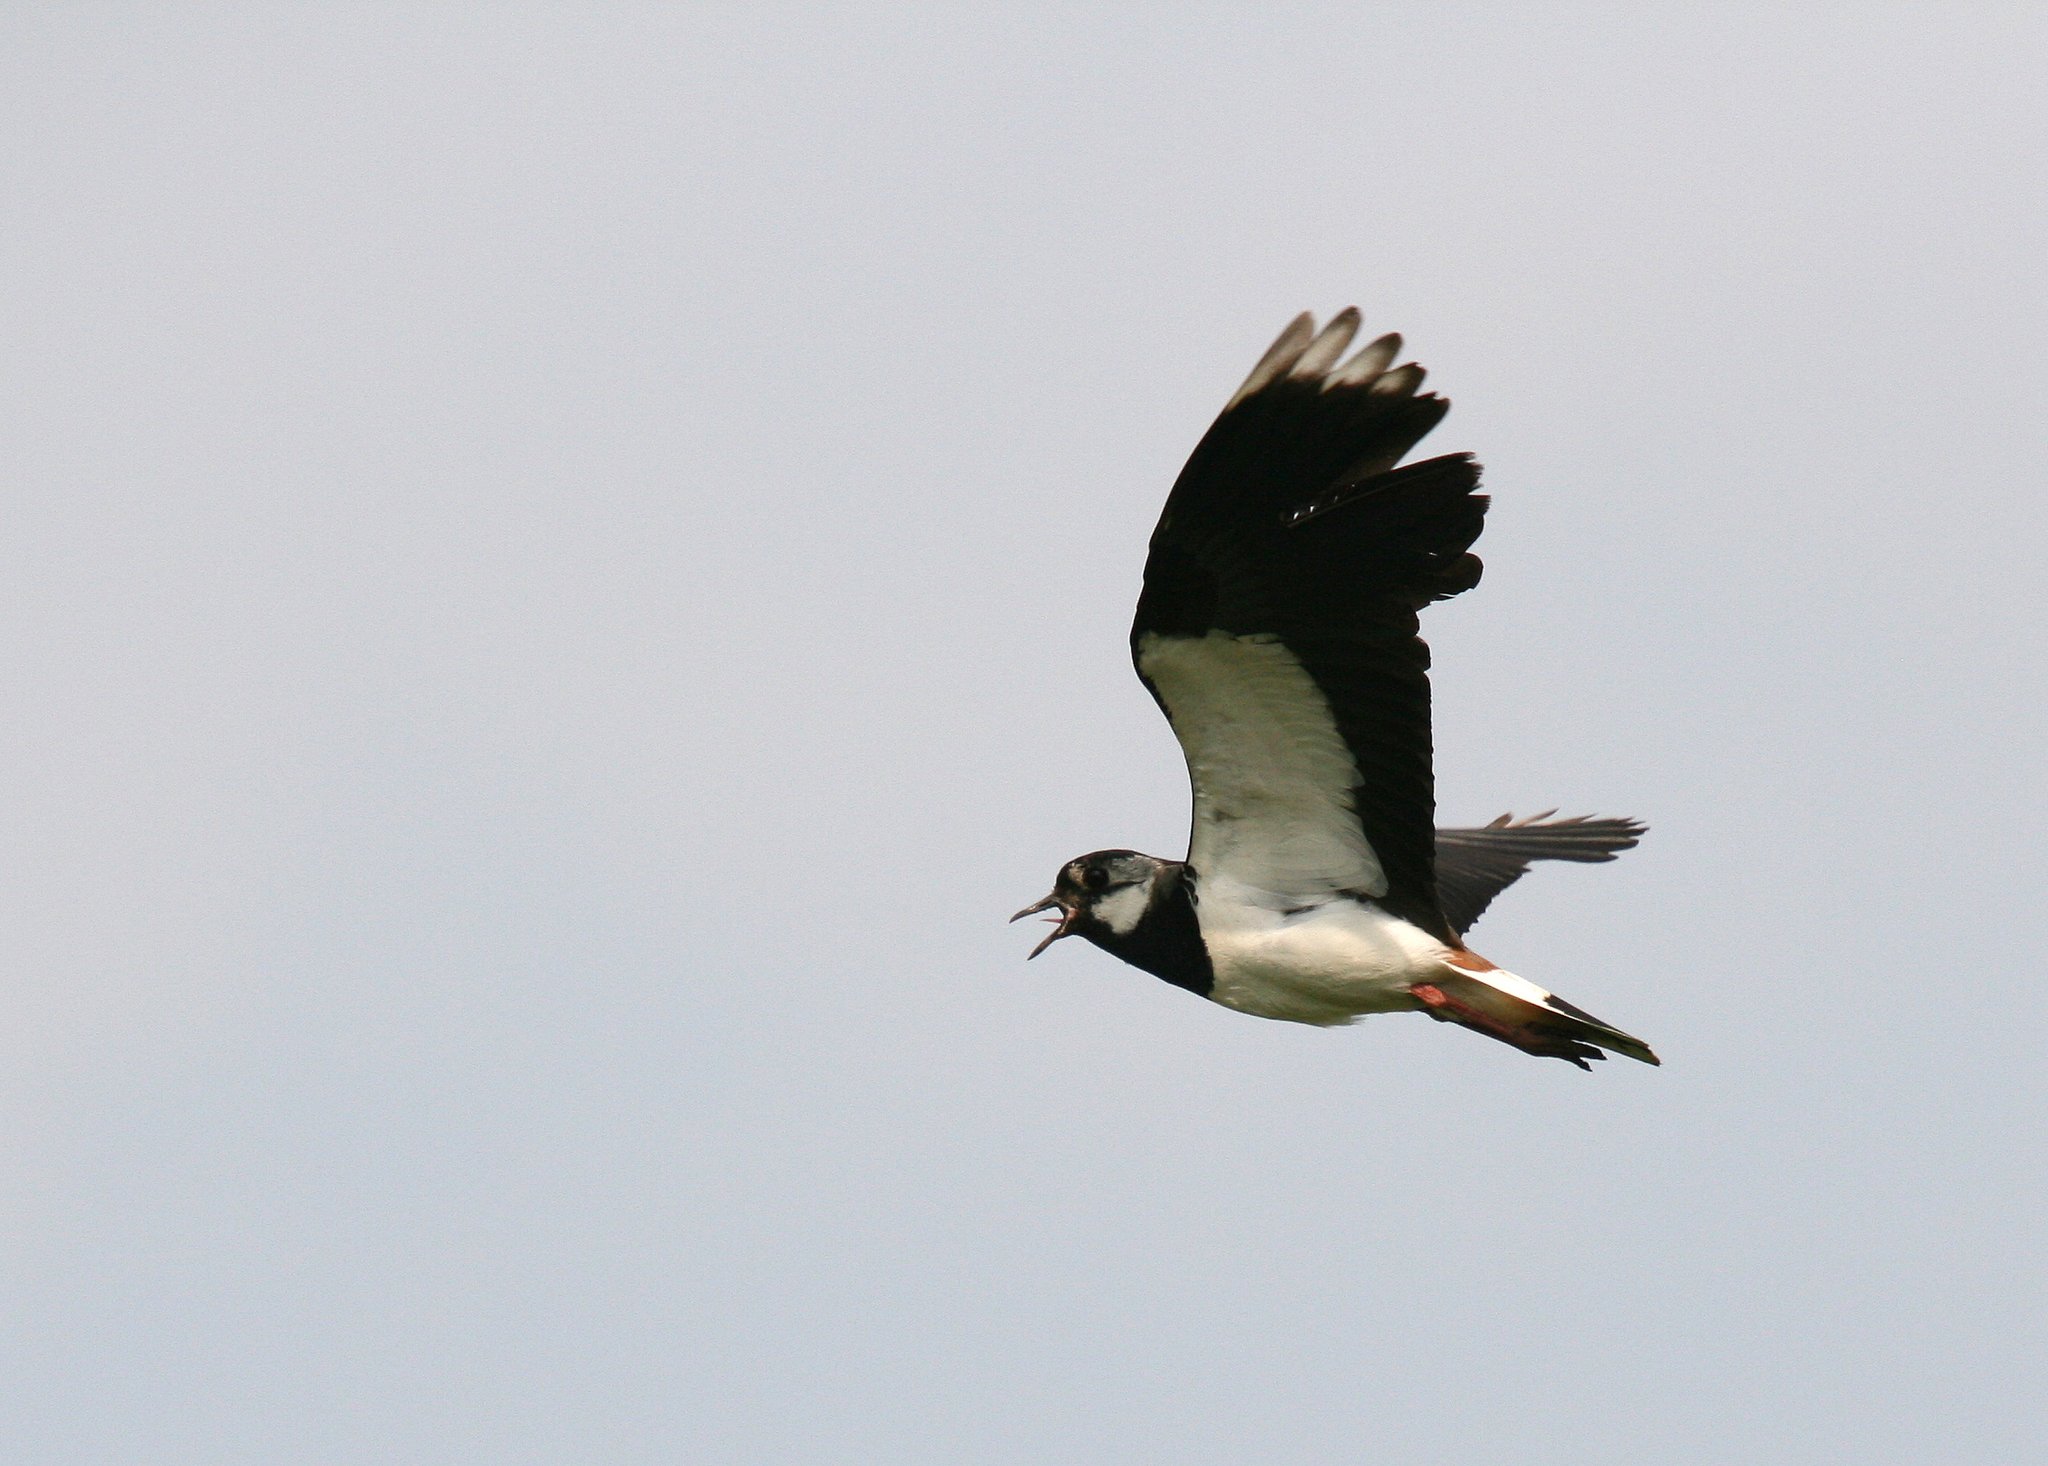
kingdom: Animalia
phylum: Chordata
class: Aves
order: Charadriiformes
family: Charadriidae
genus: Vanellus
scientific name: Vanellus vanellus
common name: Northern lapwing
